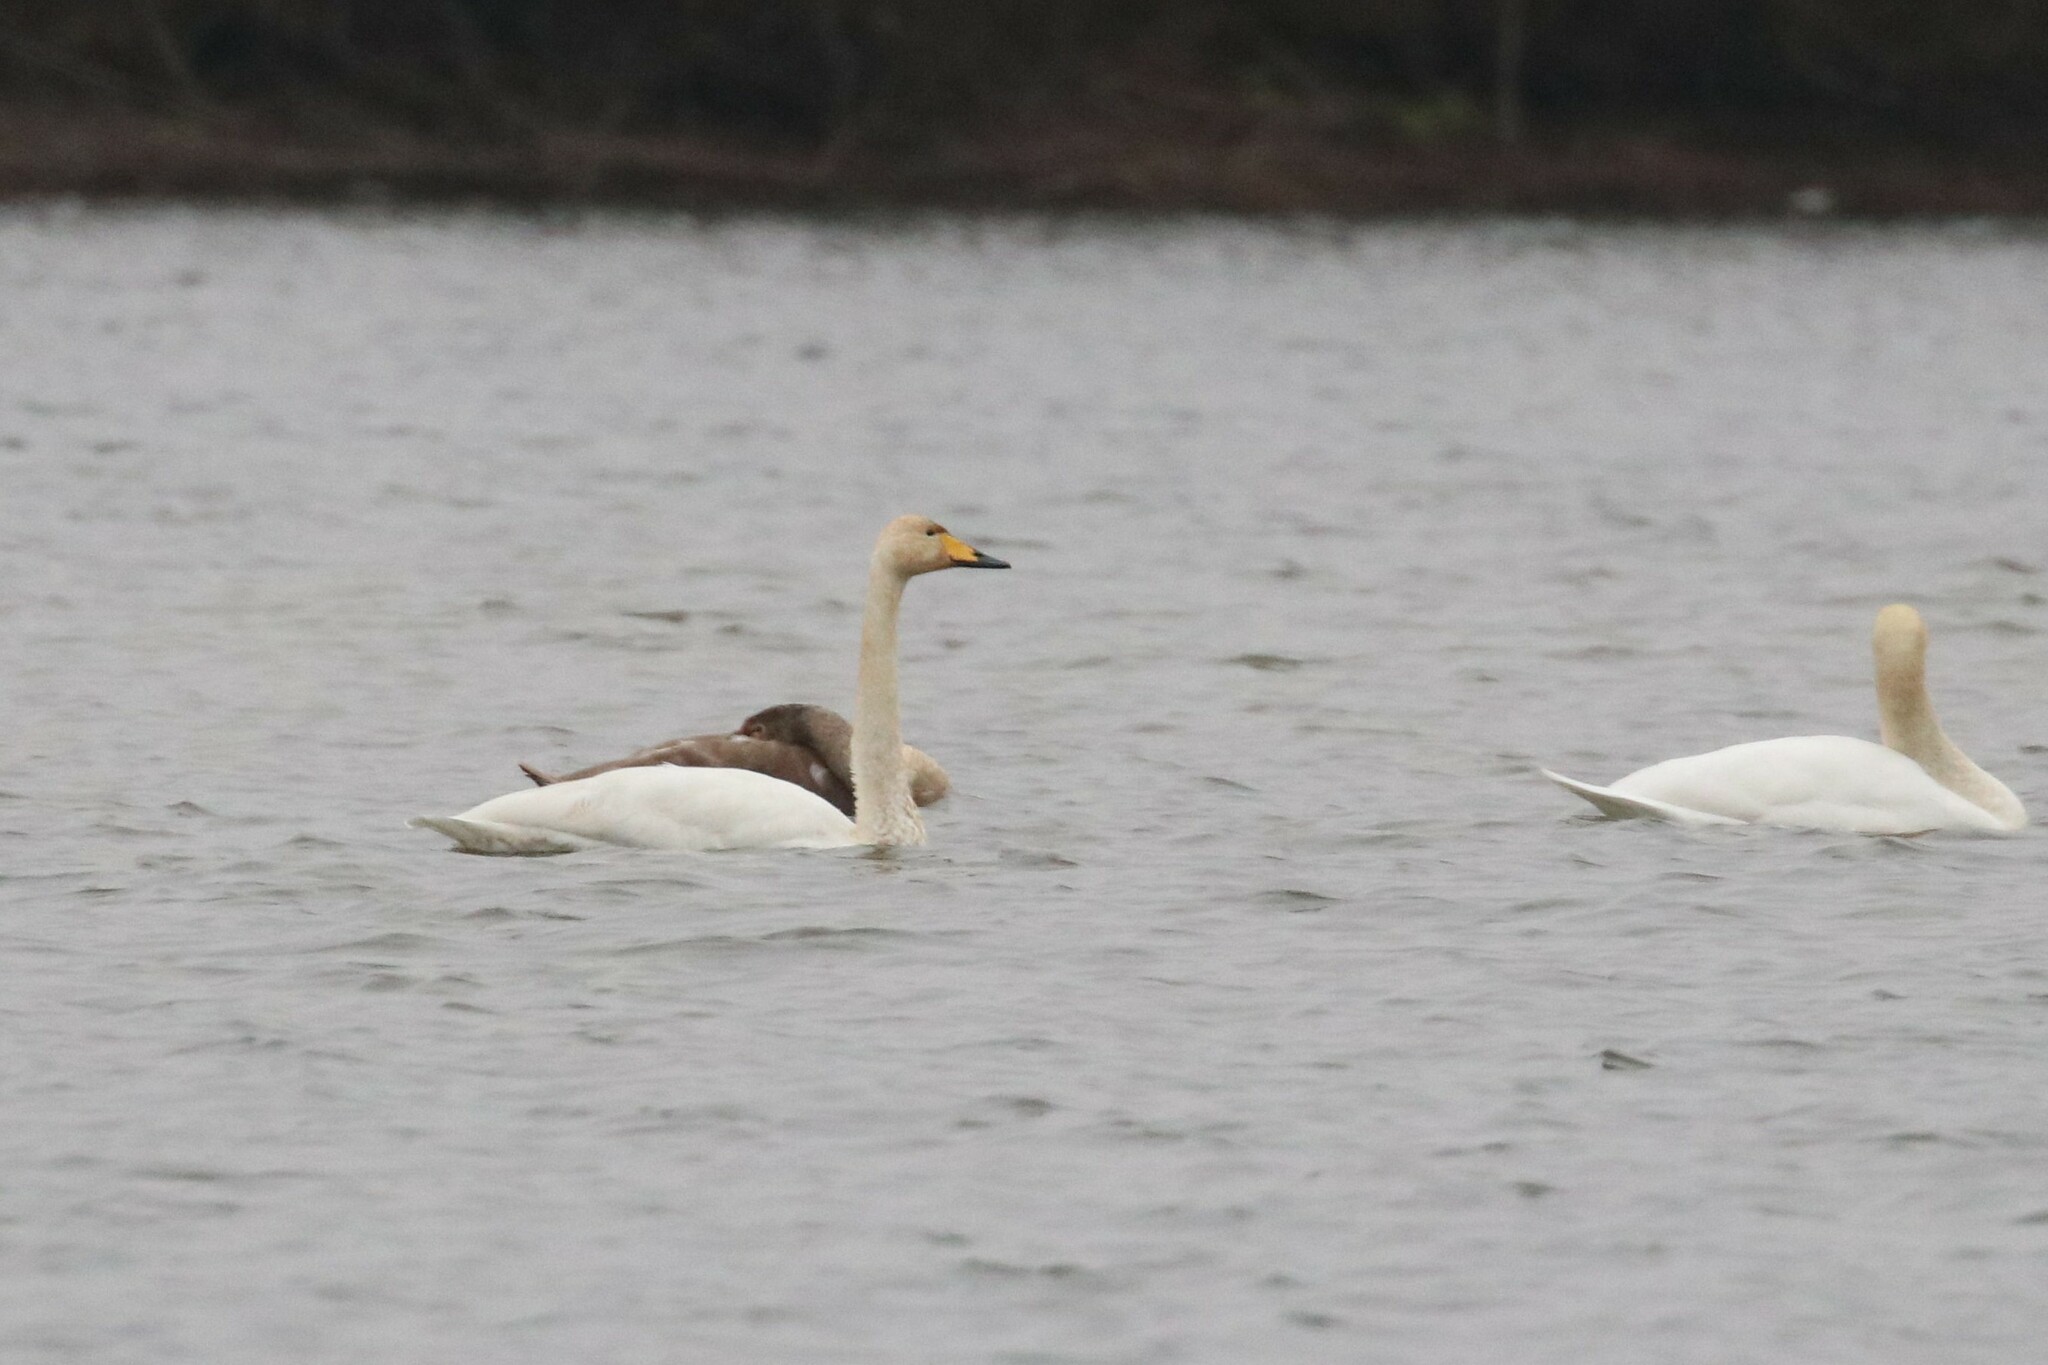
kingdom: Animalia
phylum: Chordata
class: Aves
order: Anseriformes
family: Anatidae
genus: Cygnus
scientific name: Cygnus cygnus
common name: Whooper swan
